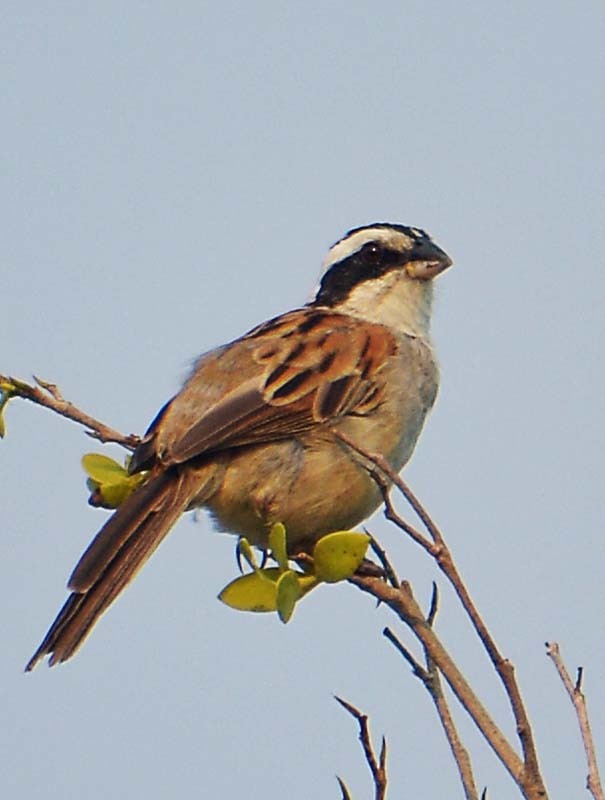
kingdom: Animalia
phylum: Chordata
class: Aves
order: Passeriformes
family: Passerellidae
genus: Peucaea
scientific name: Peucaea ruficauda
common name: Stripe-headed sparrow
